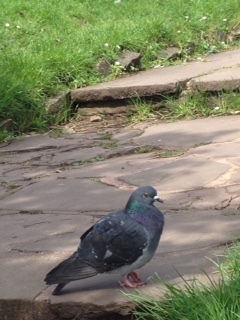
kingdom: Animalia
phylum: Chordata
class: Aves
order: Columbiformes
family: Columbidae
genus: Columba
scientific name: Columba livia
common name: Rock pigeon
